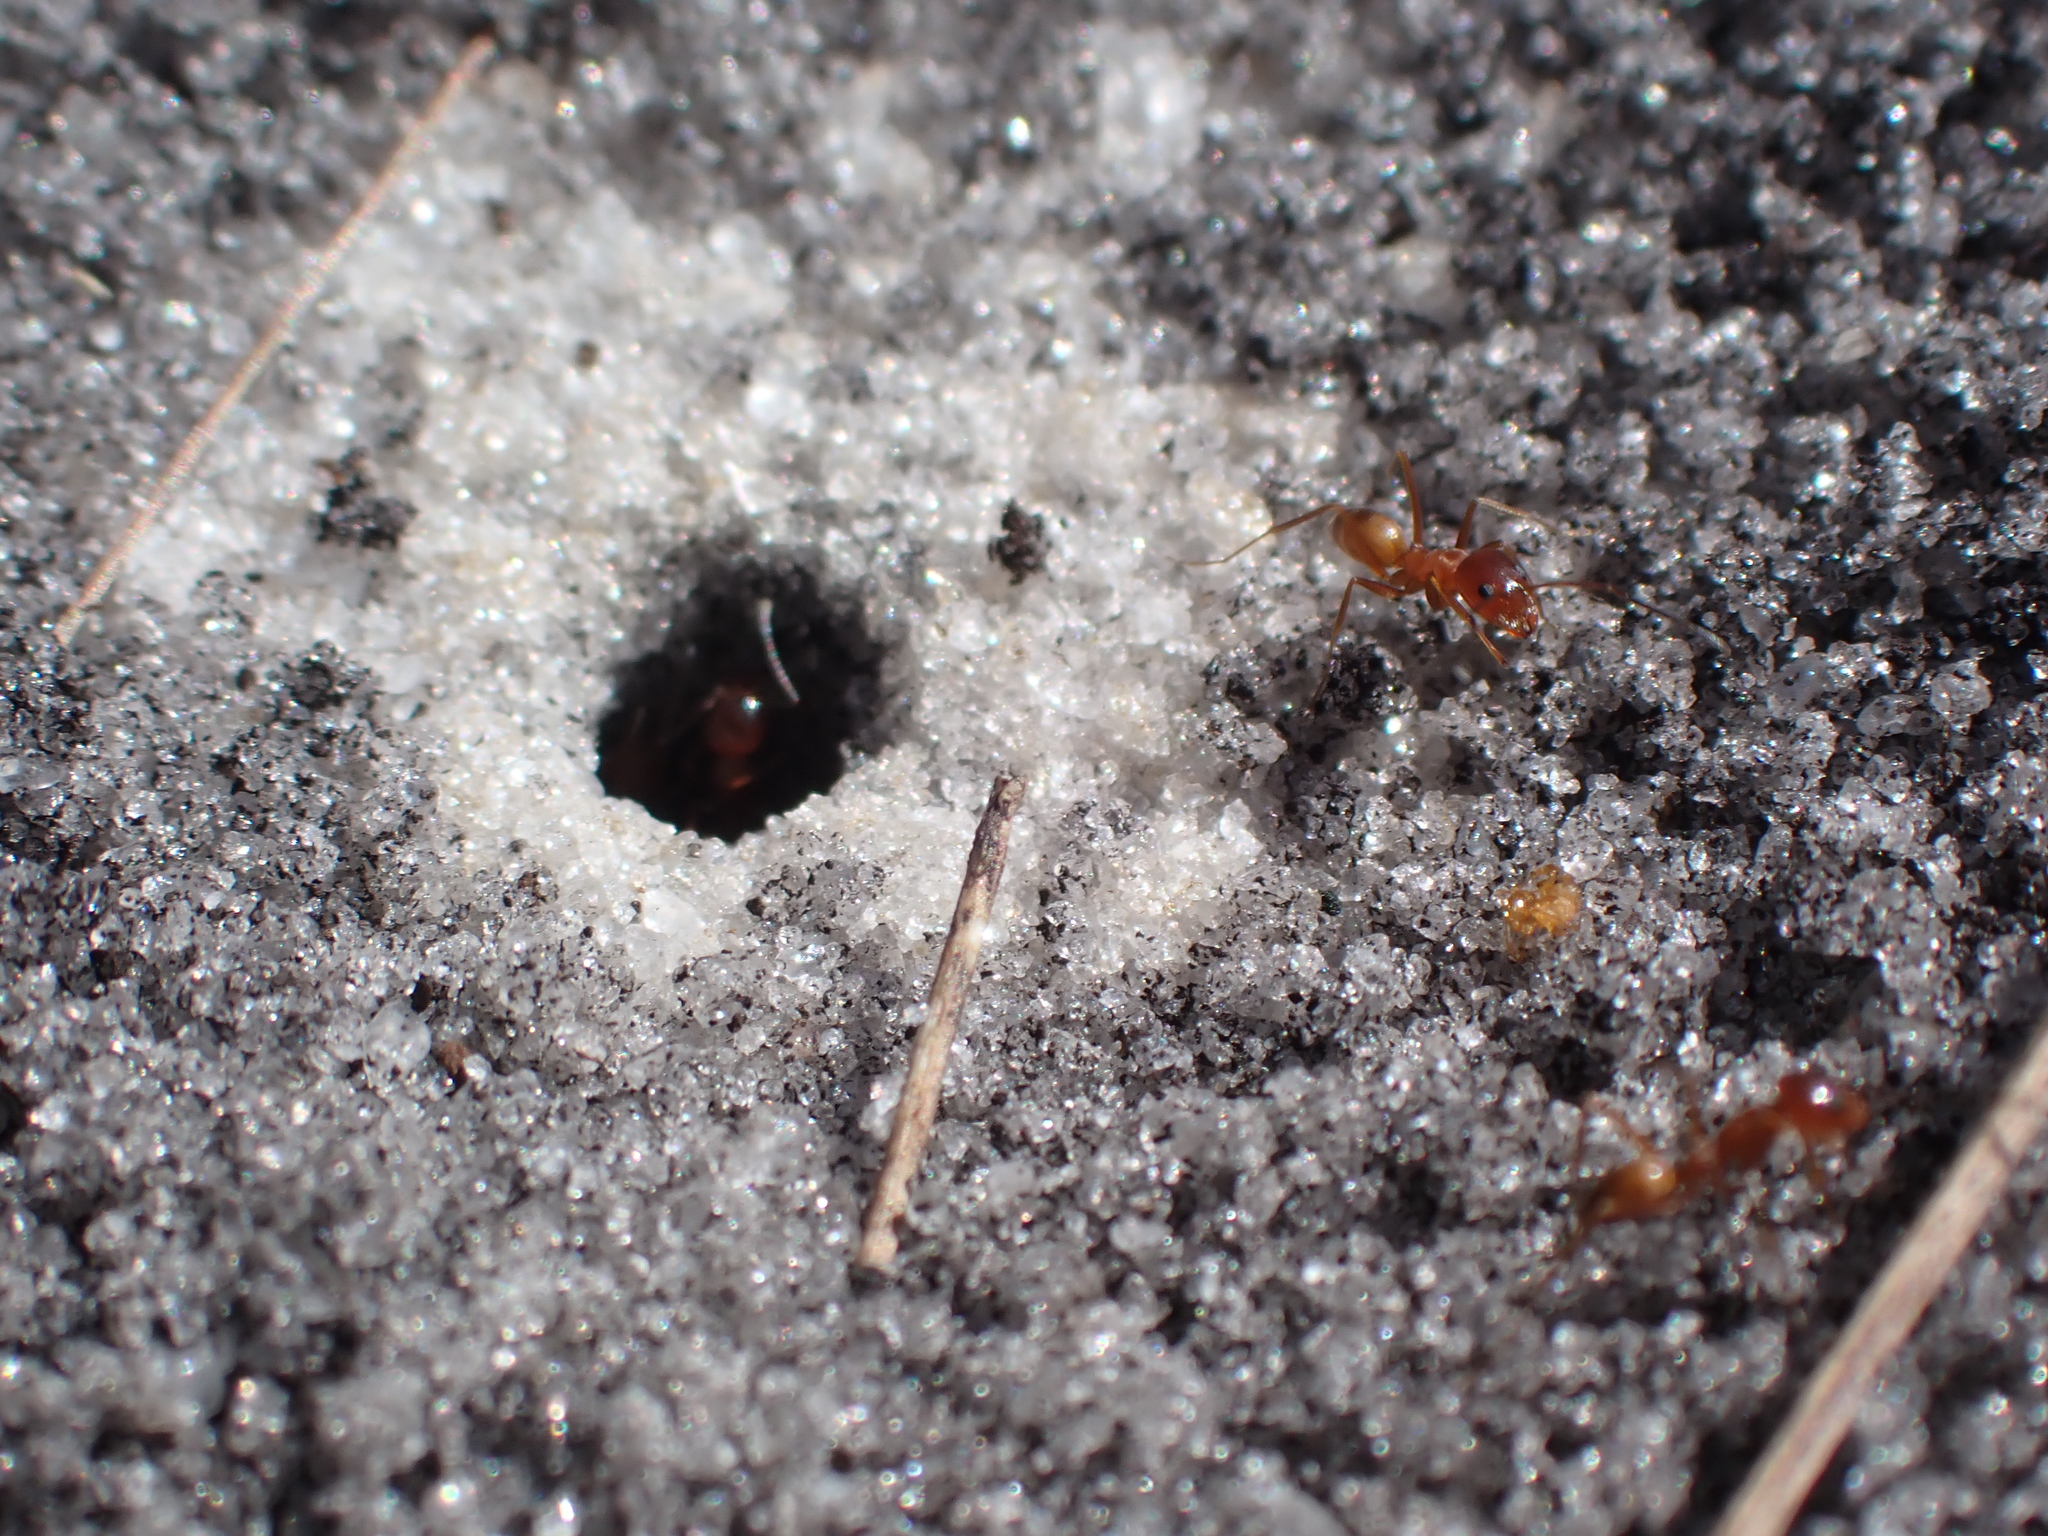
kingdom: Animalia
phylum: Arthropoda
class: Insecta
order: Hymenoptera
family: Formicidae
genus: Dorymyrmex
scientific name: Dorymyrmex bureni
